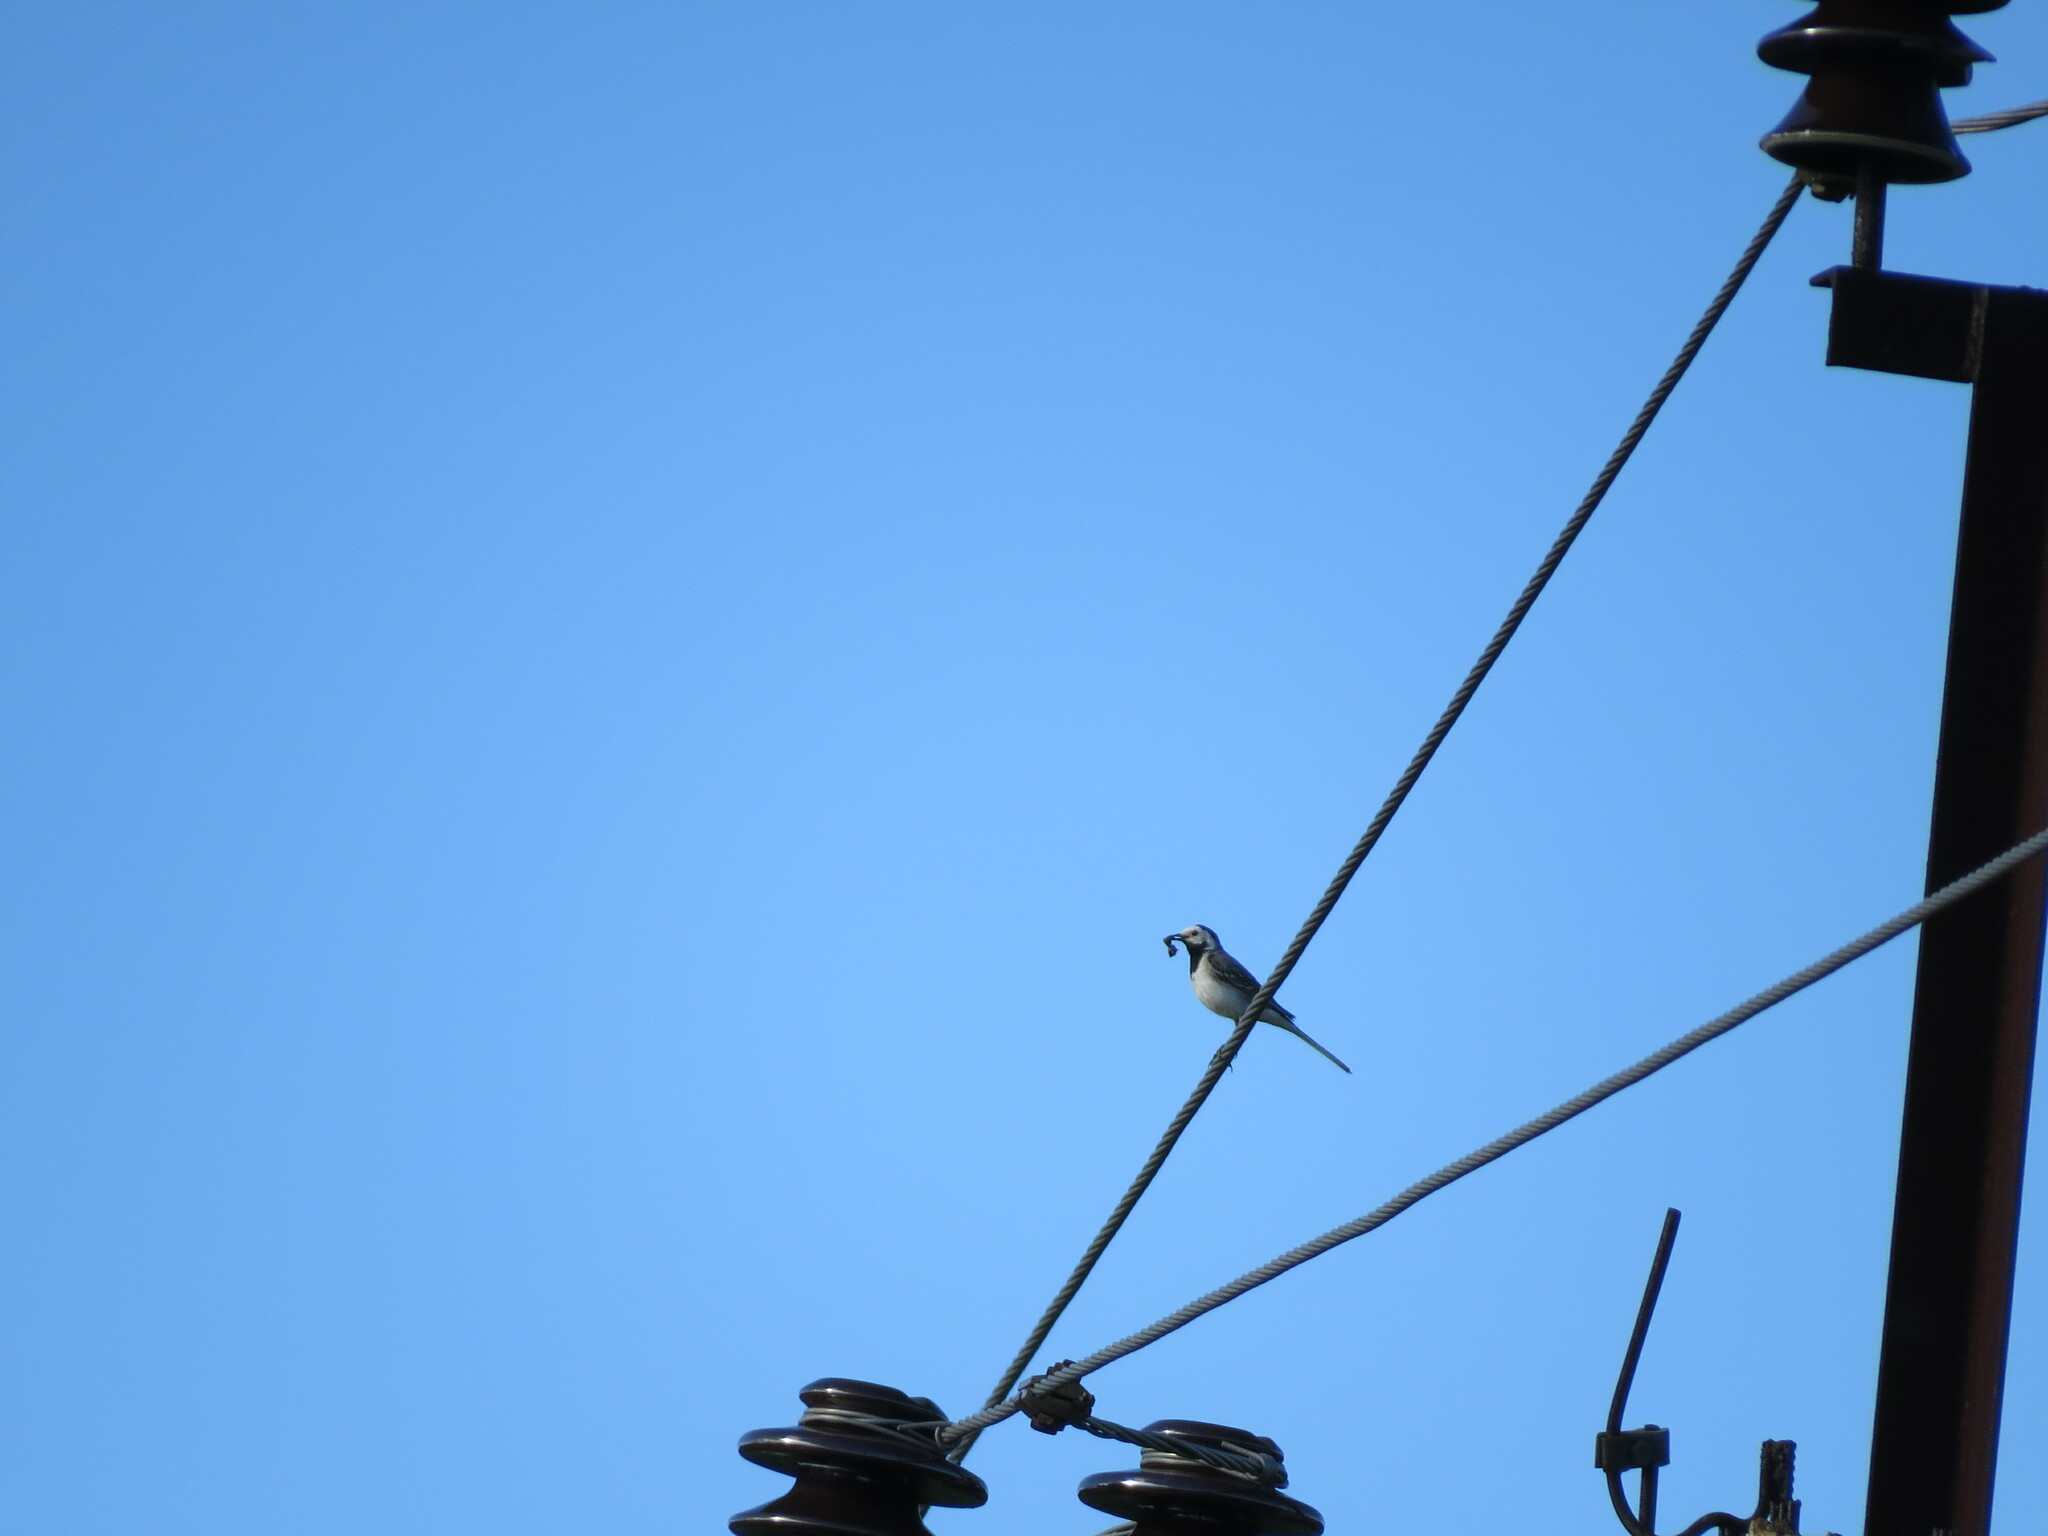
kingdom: Animalia
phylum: Chordata
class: Aves
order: Passeriformes
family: Motacillidae
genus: Motacilla
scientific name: Motacilla alba
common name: White wagtail
